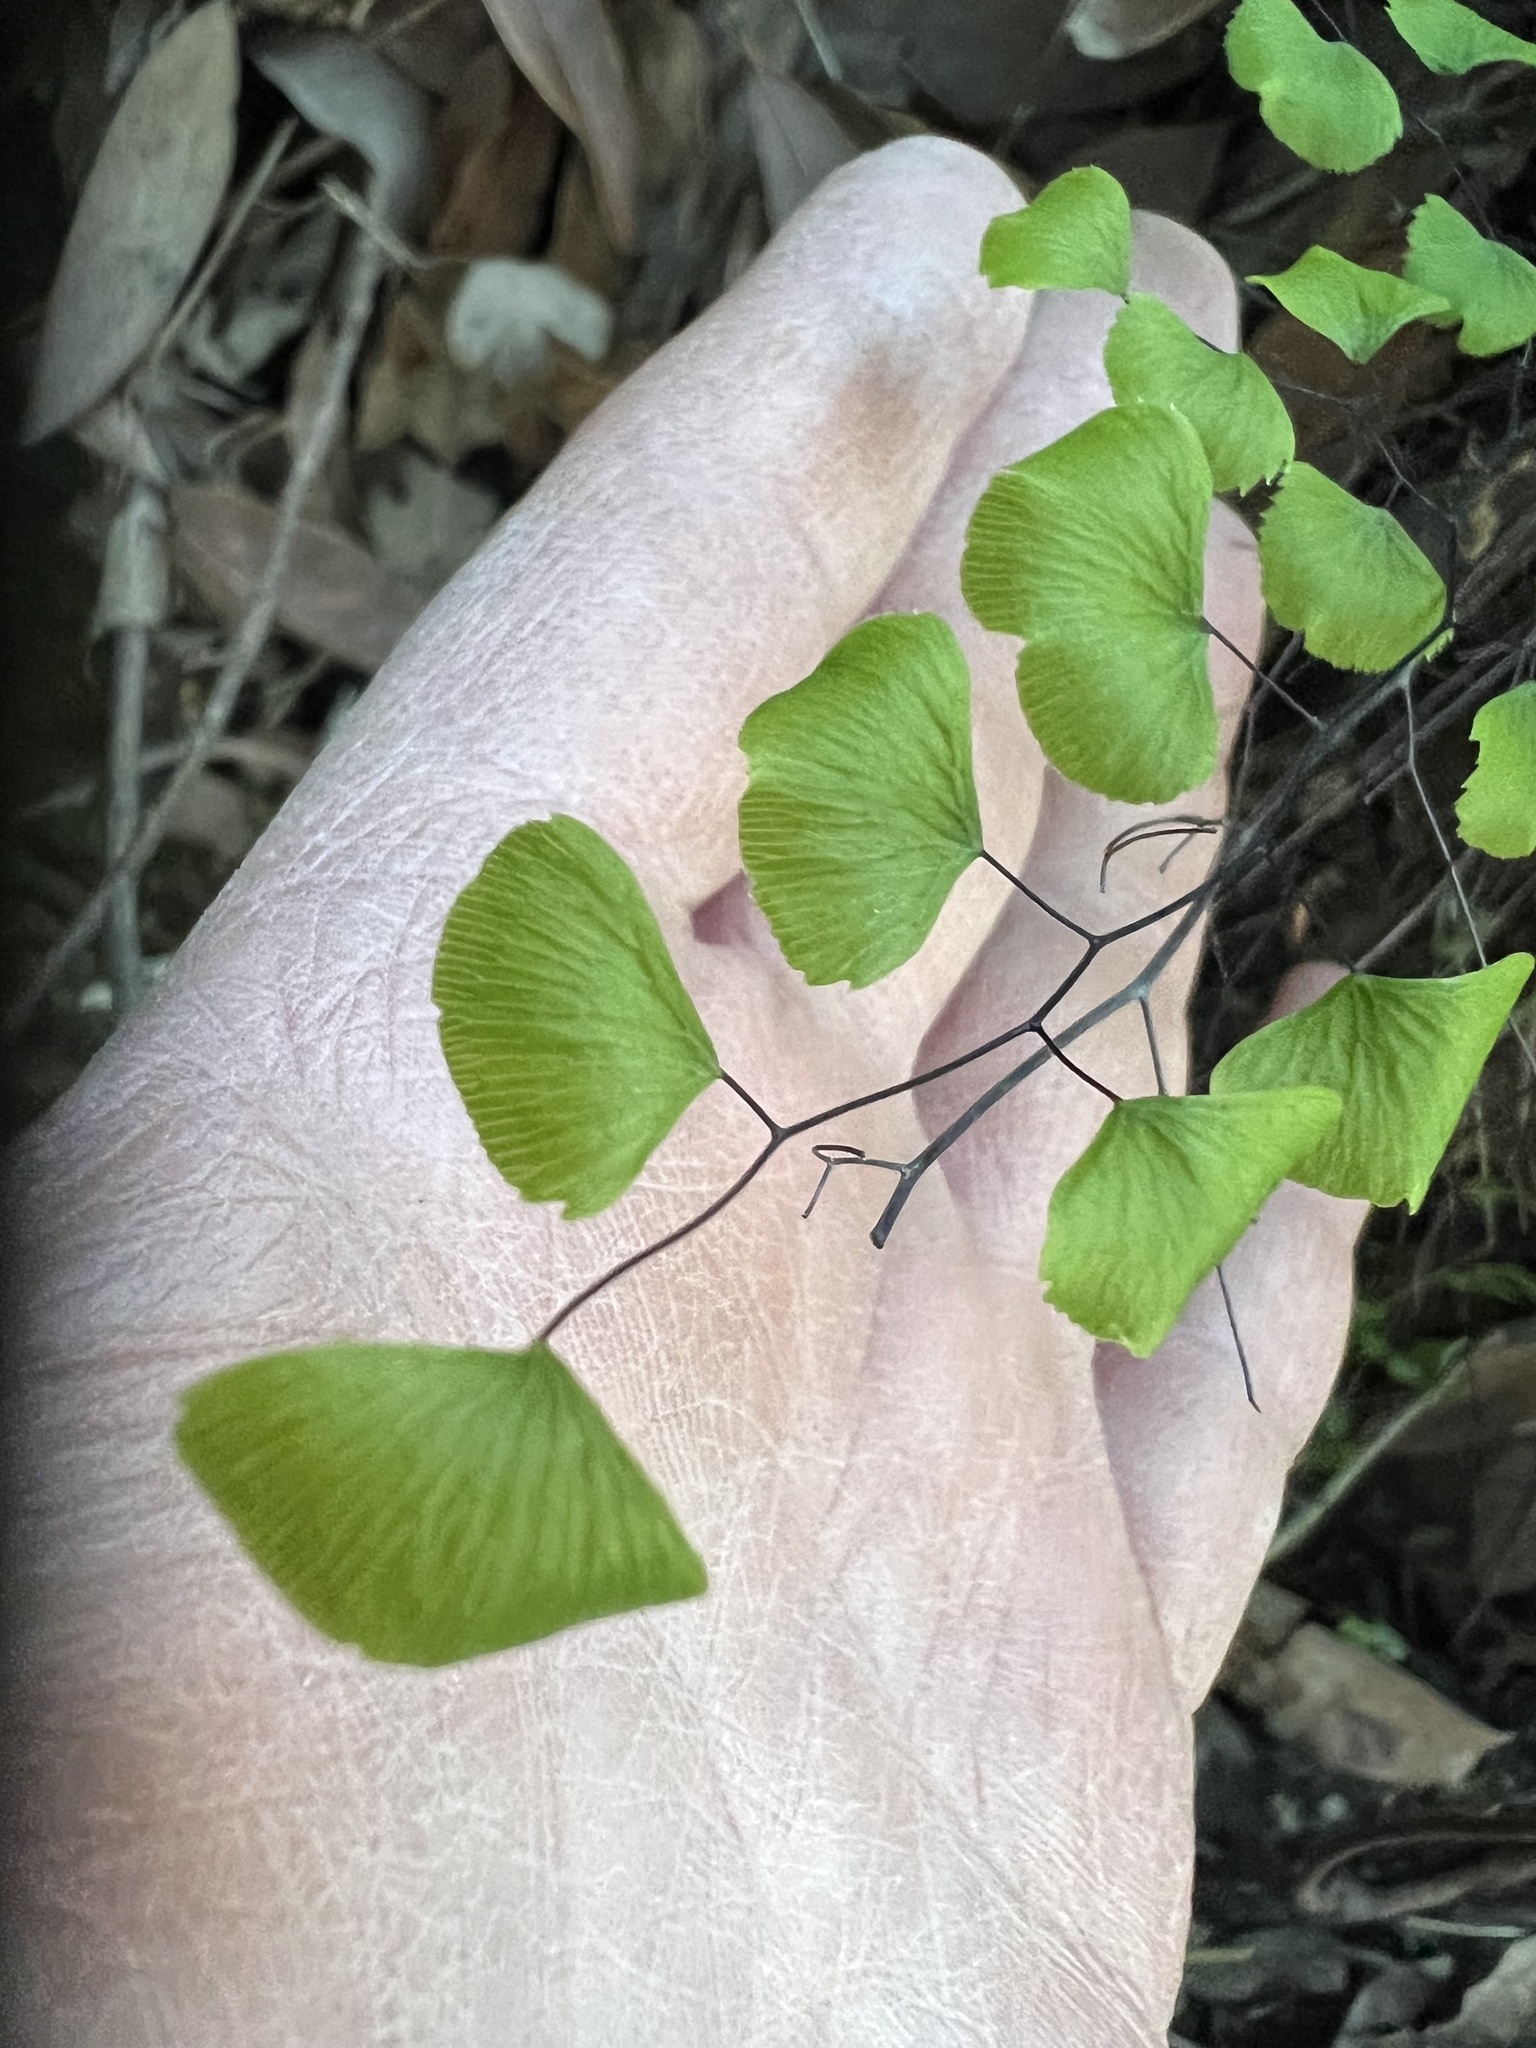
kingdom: Plantae
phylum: Tracheophyta
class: Polypodiopsida
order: Polypodiales
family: Pteridaceae
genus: Adiantum
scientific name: Adiantum jordanii
